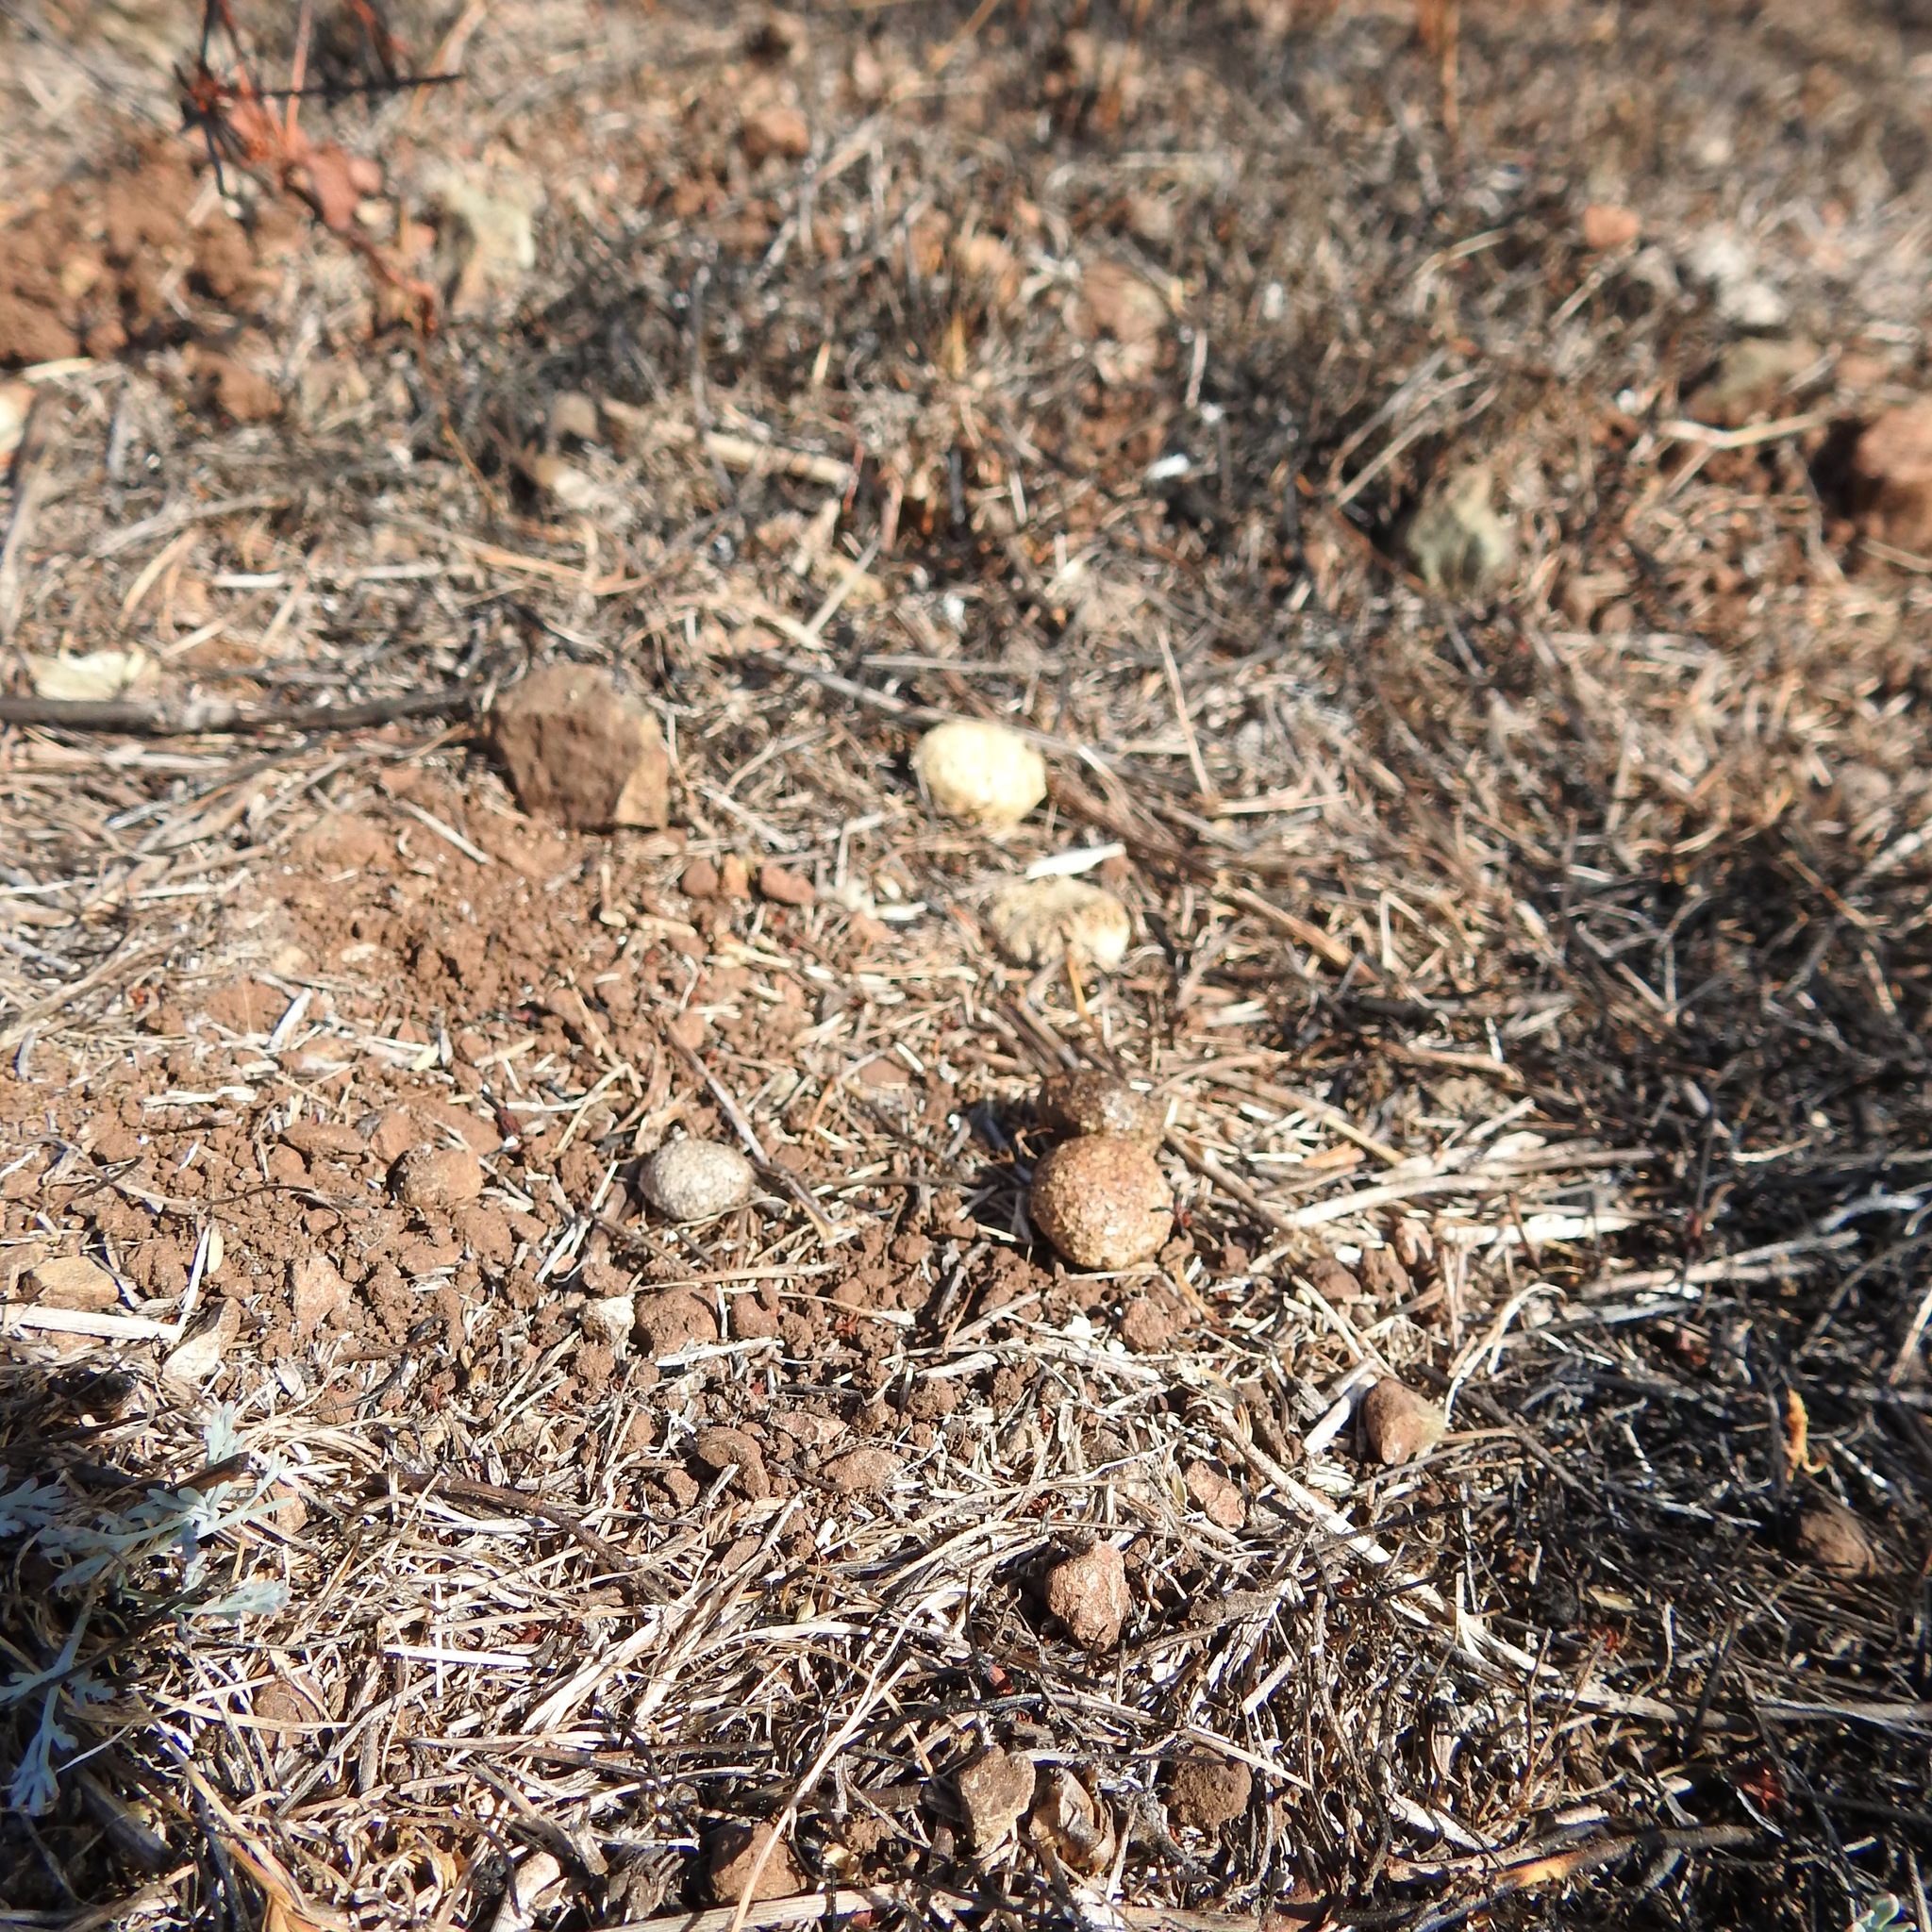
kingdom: Animalia
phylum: Chordata
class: Mammalia
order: Lagomorpha
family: Leporidae
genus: Lepus
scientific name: Lepus californicus
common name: Black-tailed jackrabbit
